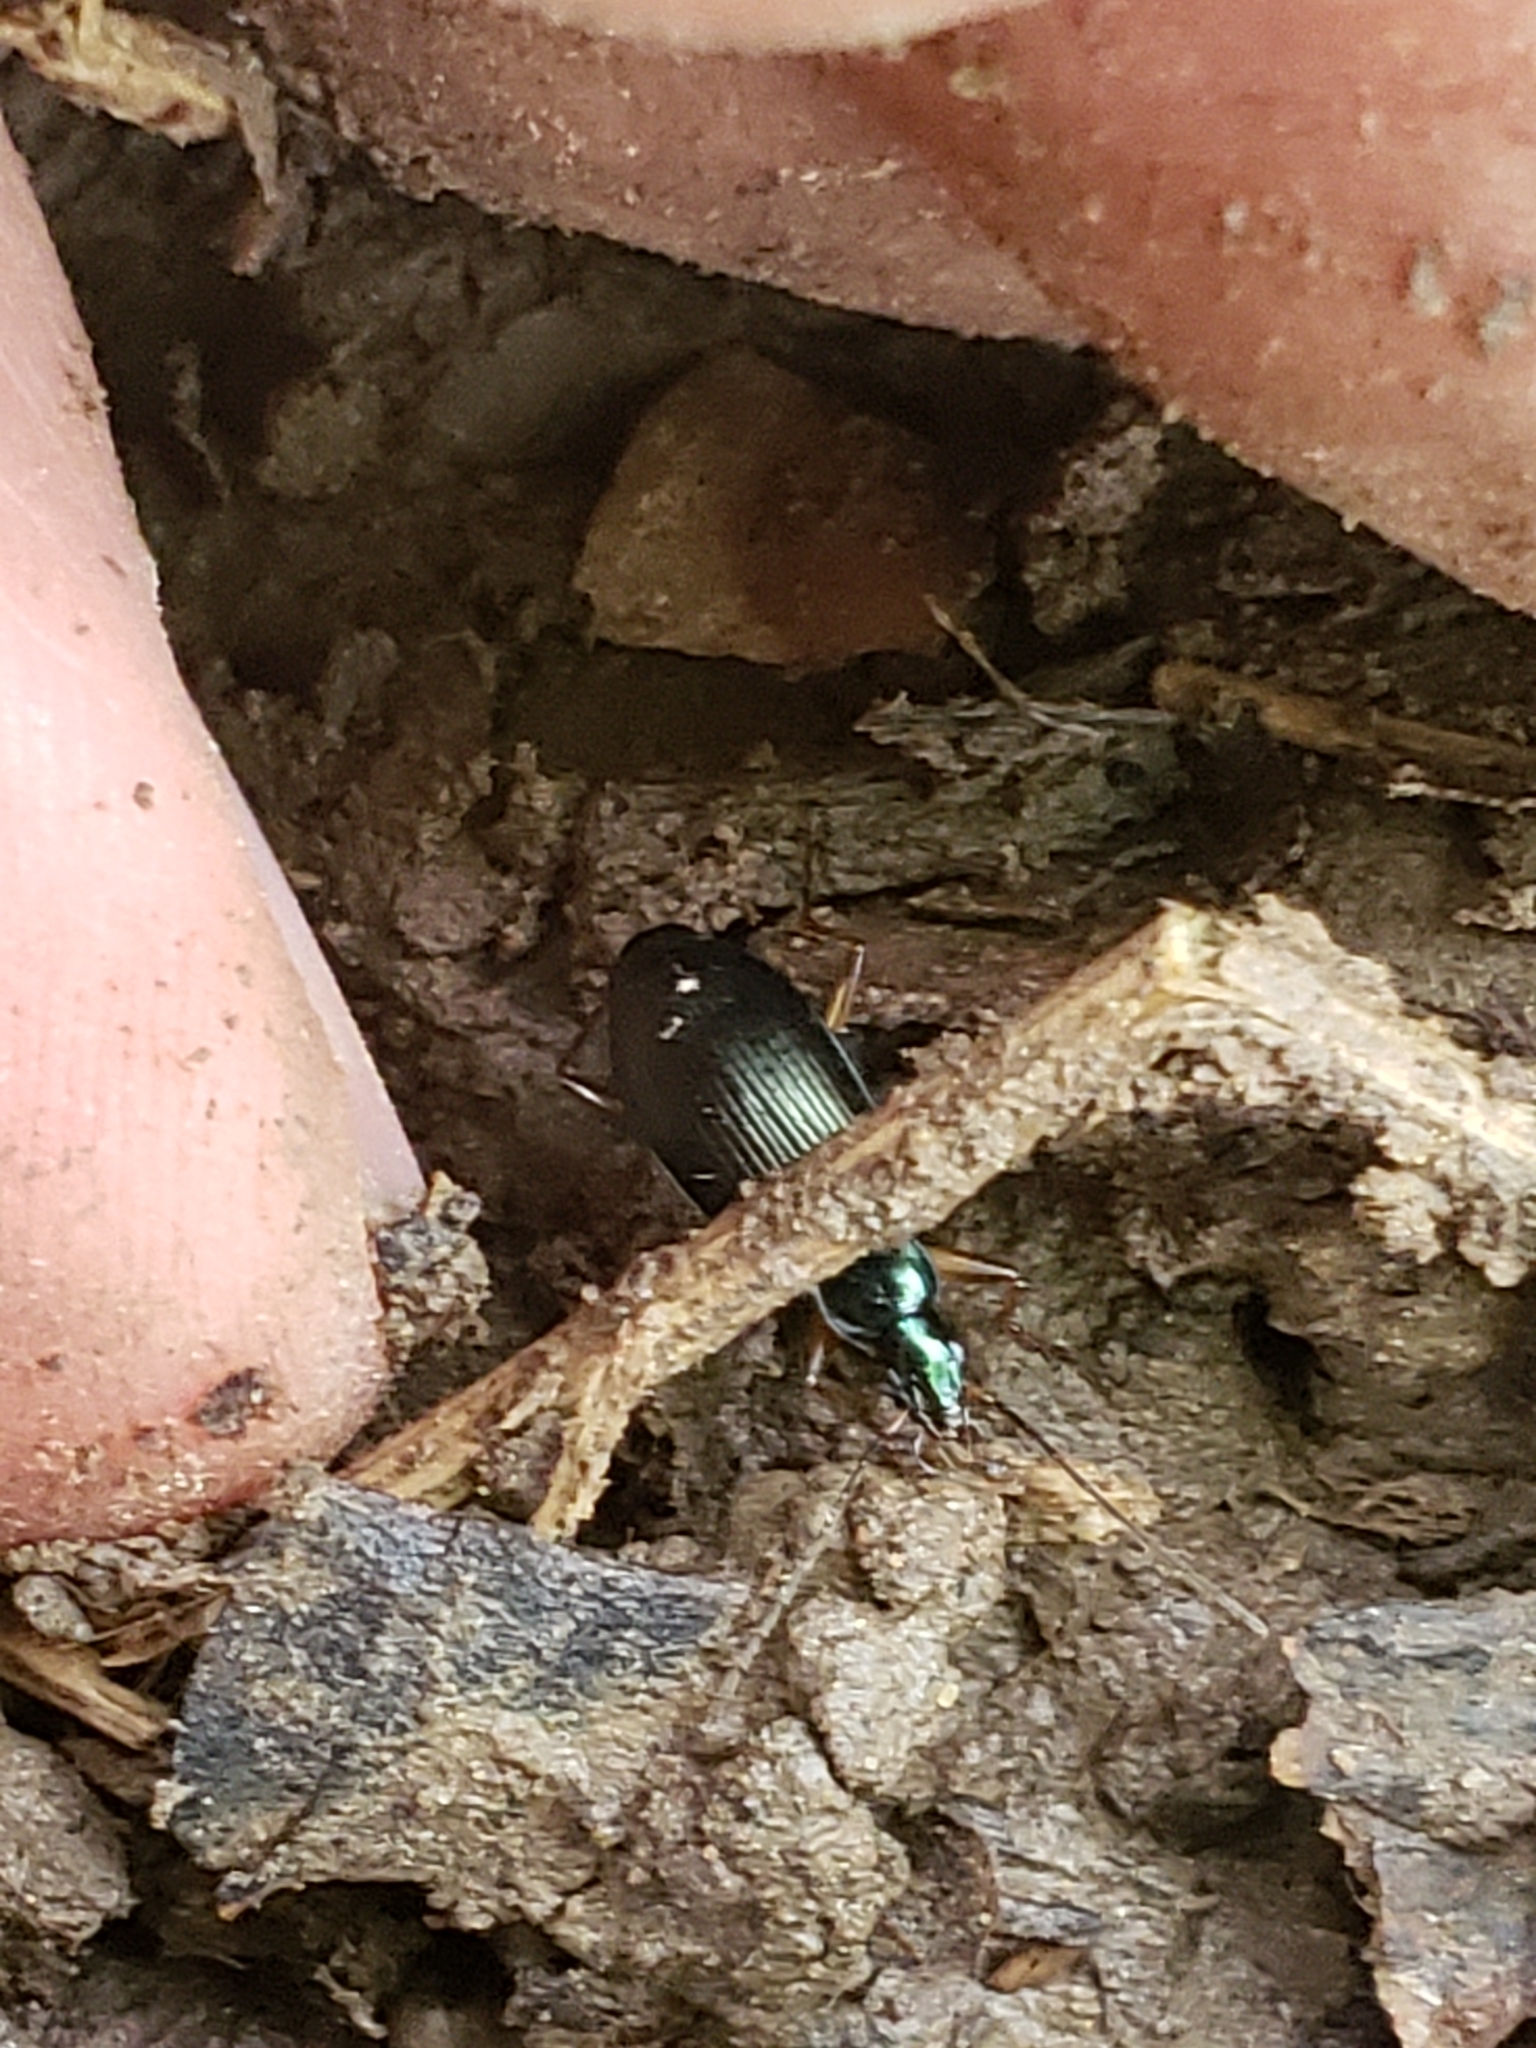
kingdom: Animalia
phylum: Arthropoda
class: Insecta
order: Coleoptera
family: Carabidae
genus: Agonum
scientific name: Agonum extensicolle
